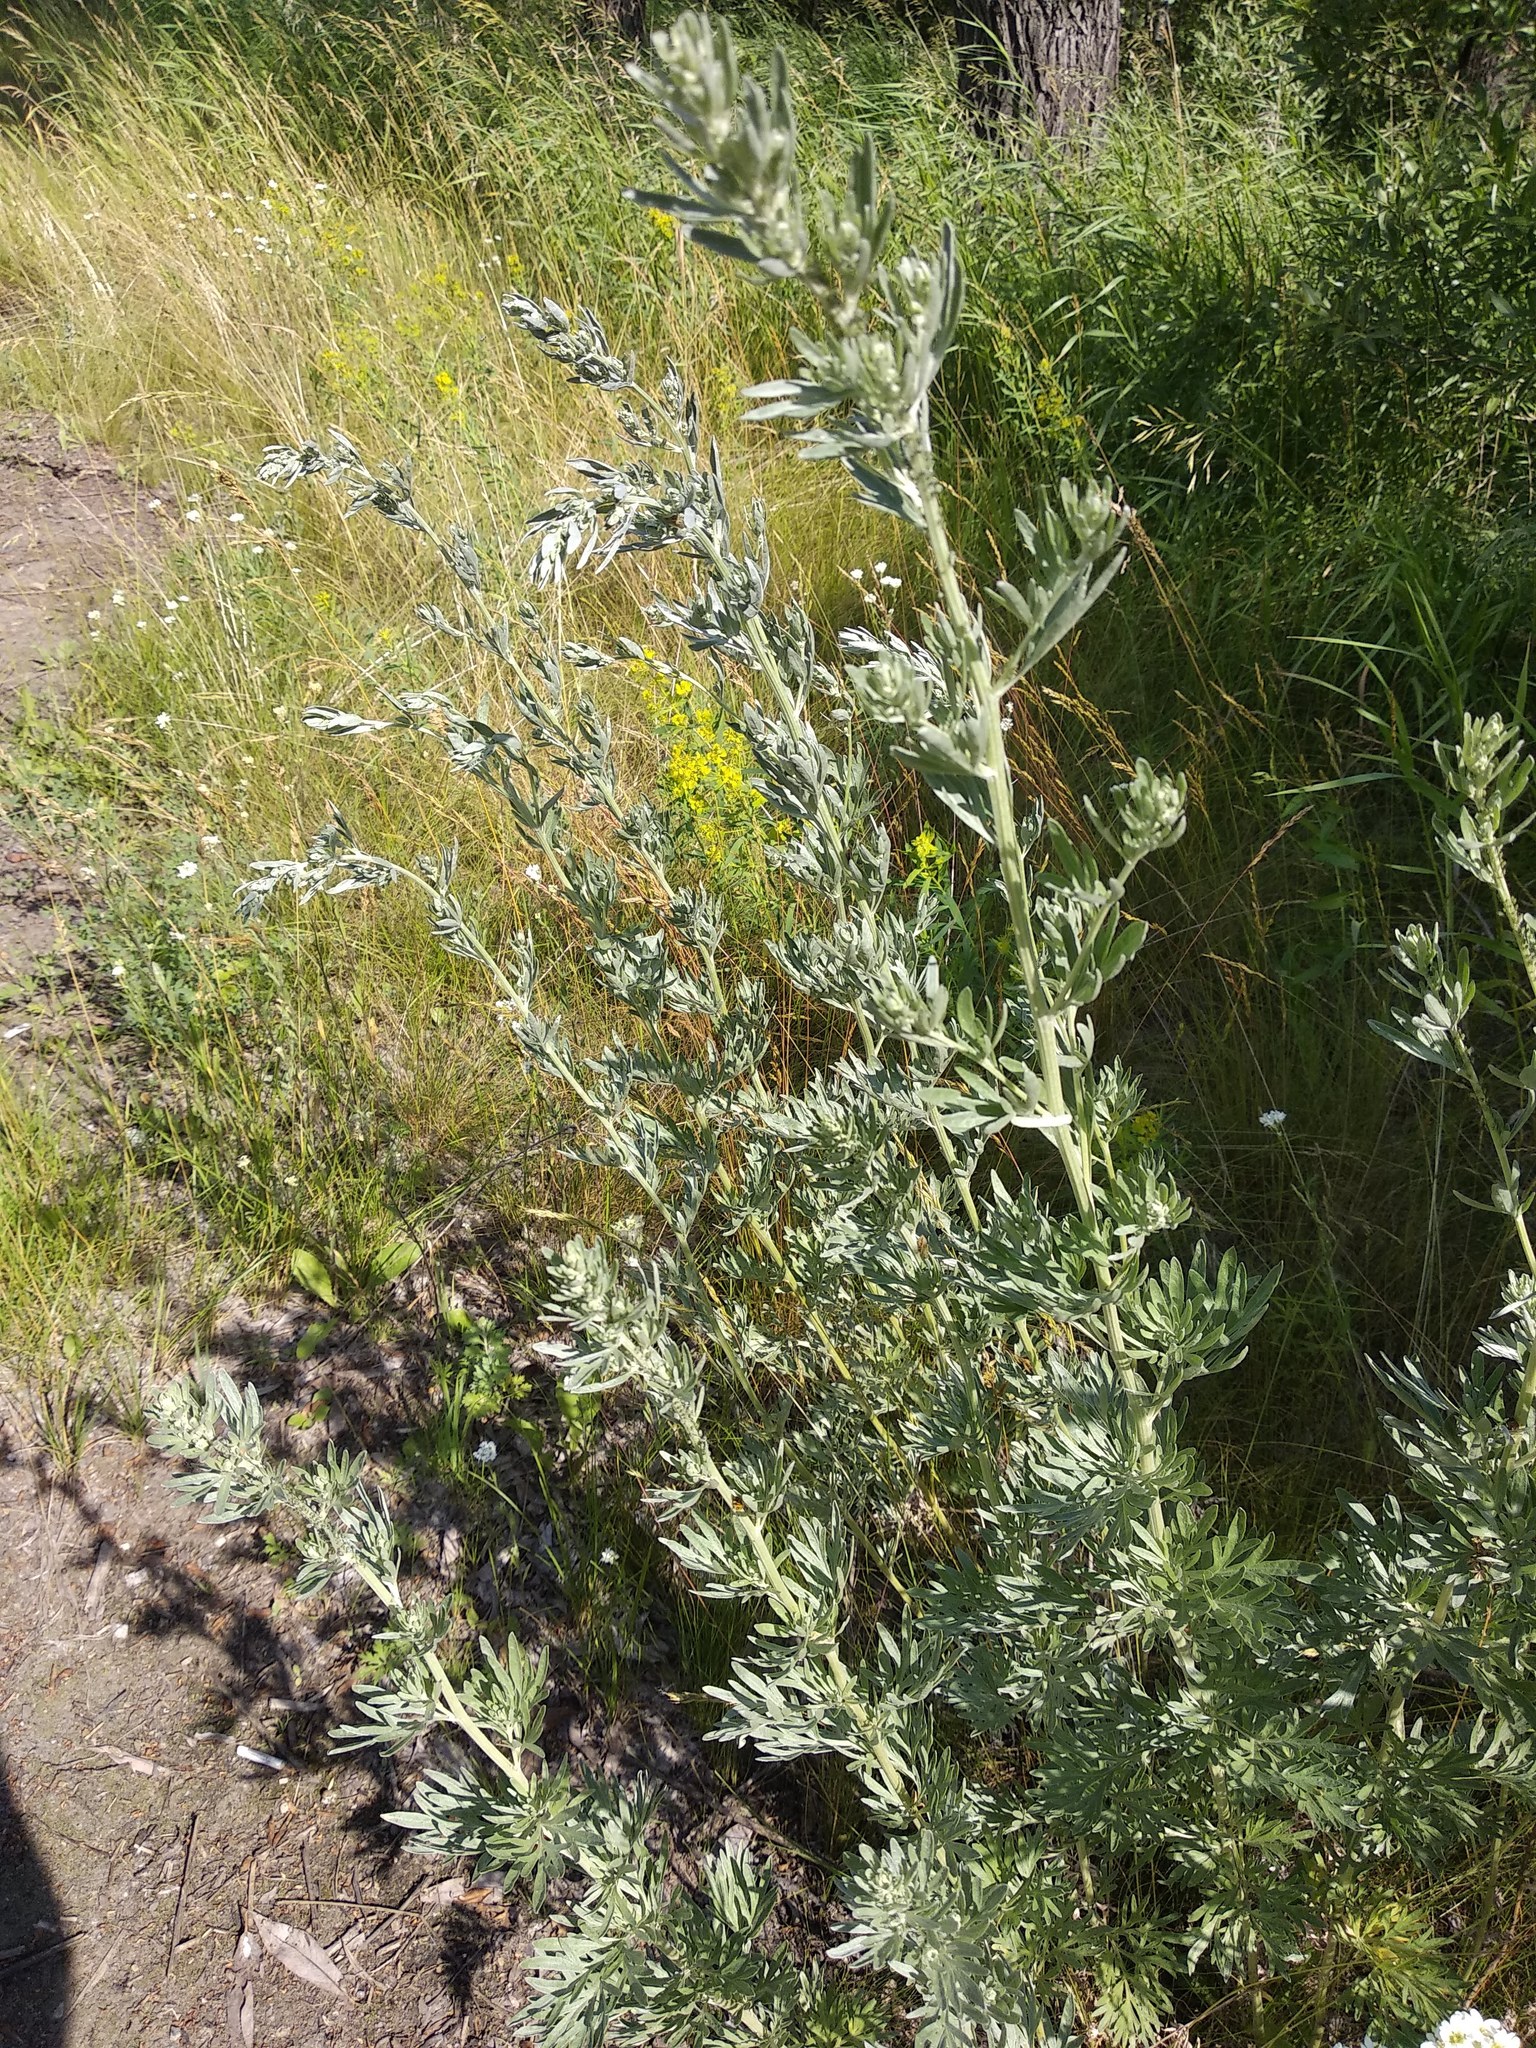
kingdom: Plantae
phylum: Tracheophyta
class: Magnoliopsida
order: Asterales
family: Asteraceae
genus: Artemisia
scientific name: Artemisia absinthium
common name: Wormwood
